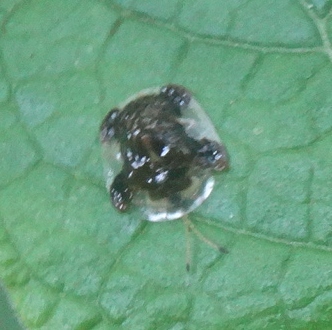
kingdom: Animalia
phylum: Arthropoda
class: Insecta
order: Coleoptera
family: Chrysomelidae
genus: Helocassis
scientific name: Helocassis clavata
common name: Clavate tortoise beetle
